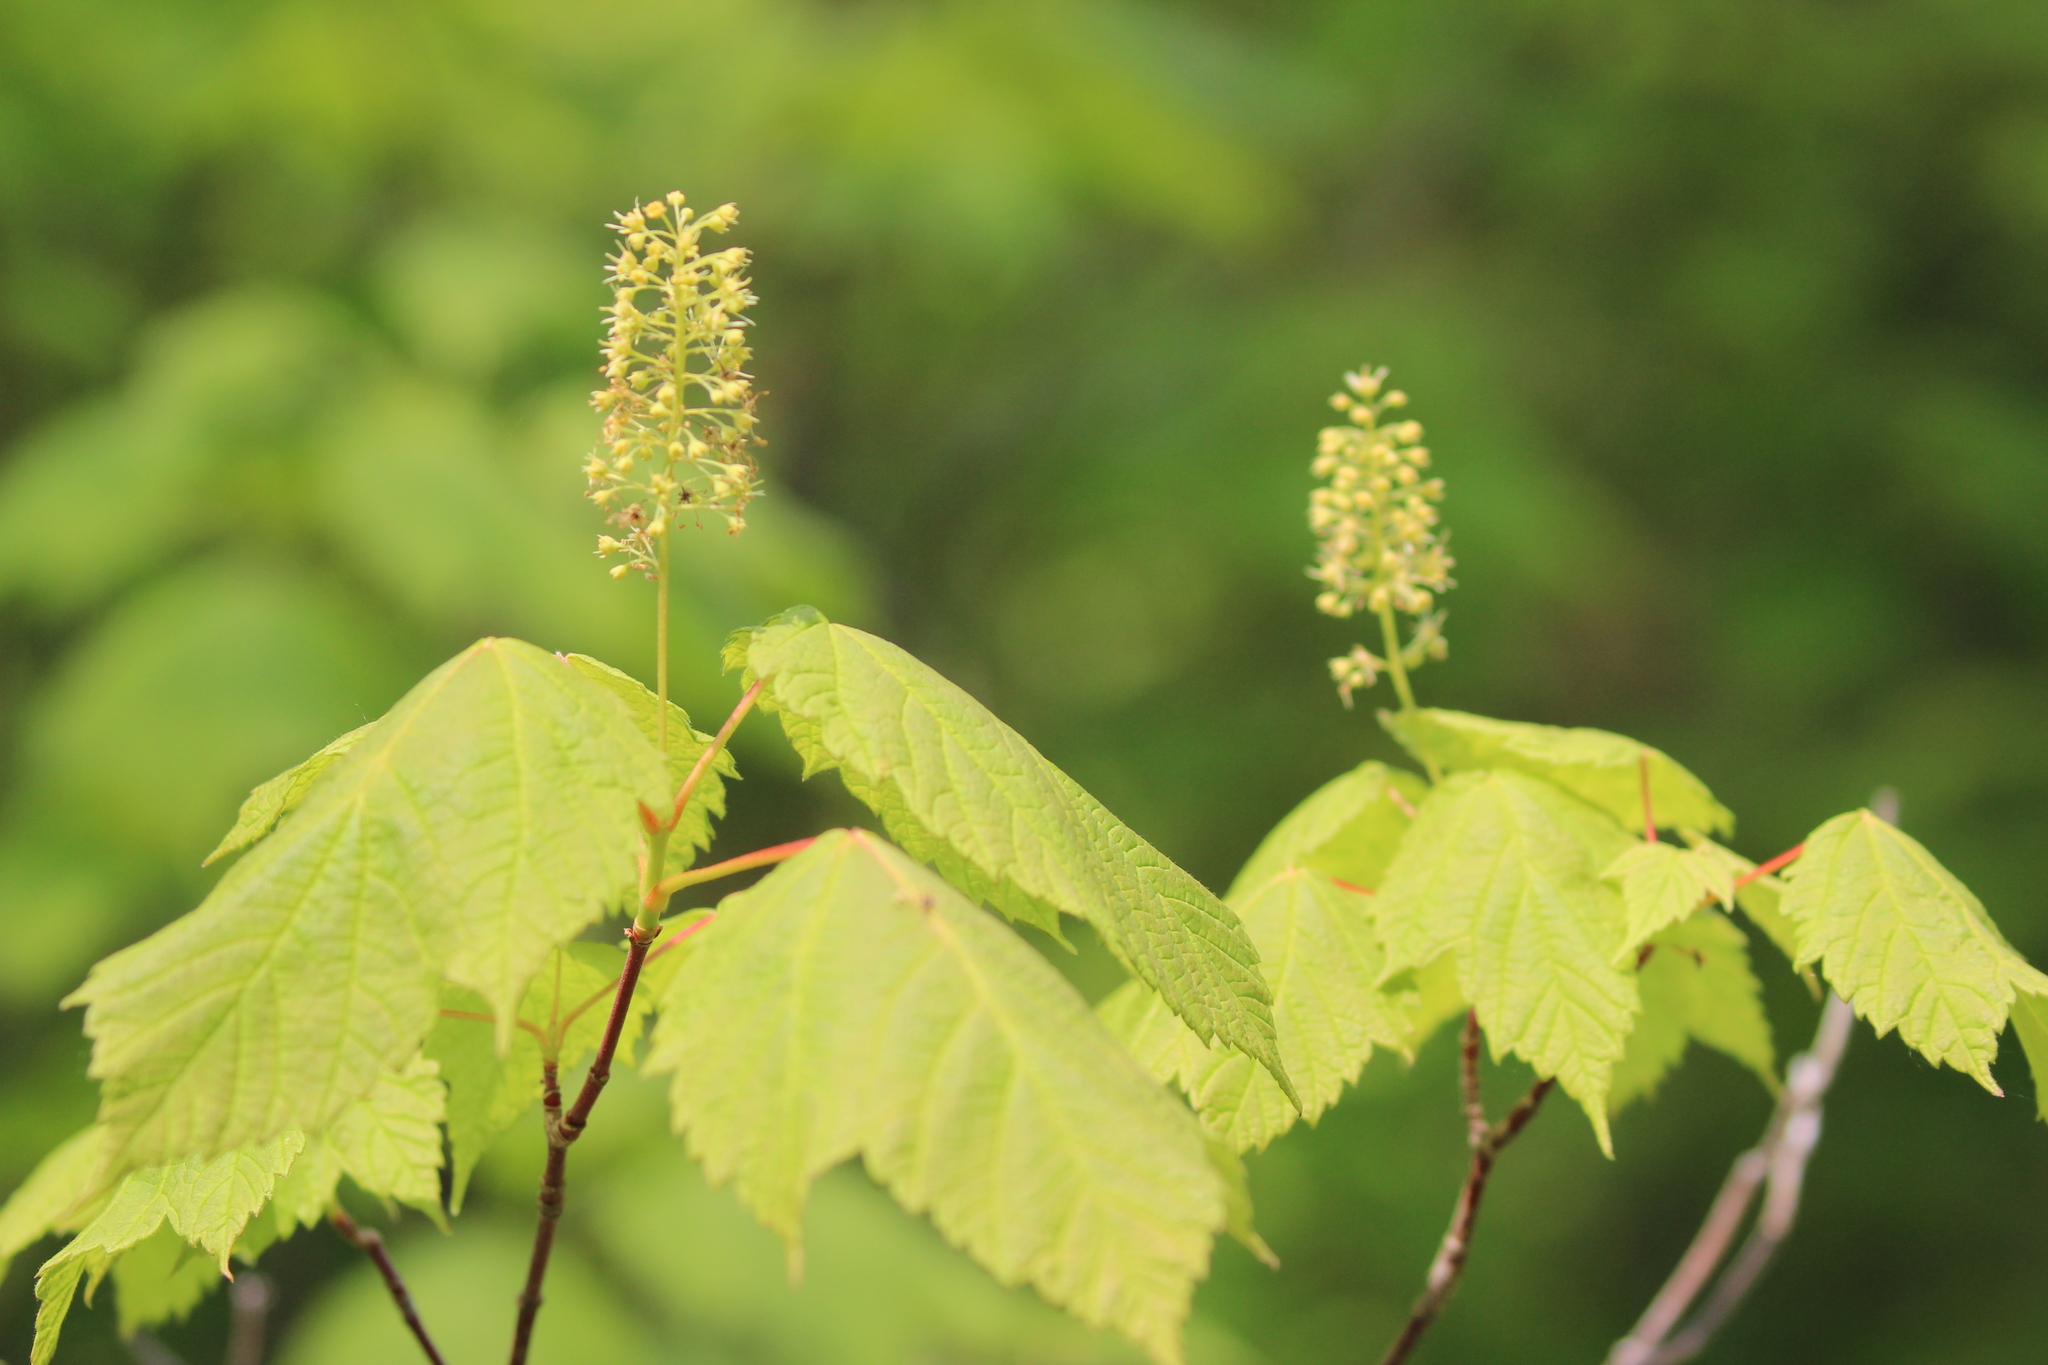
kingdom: Plantae
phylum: Tracheophyta
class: Magnoliopsida
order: Sapindales
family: Sapindaceae
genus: Acer
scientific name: Acer spicatum
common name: Mountain maple
